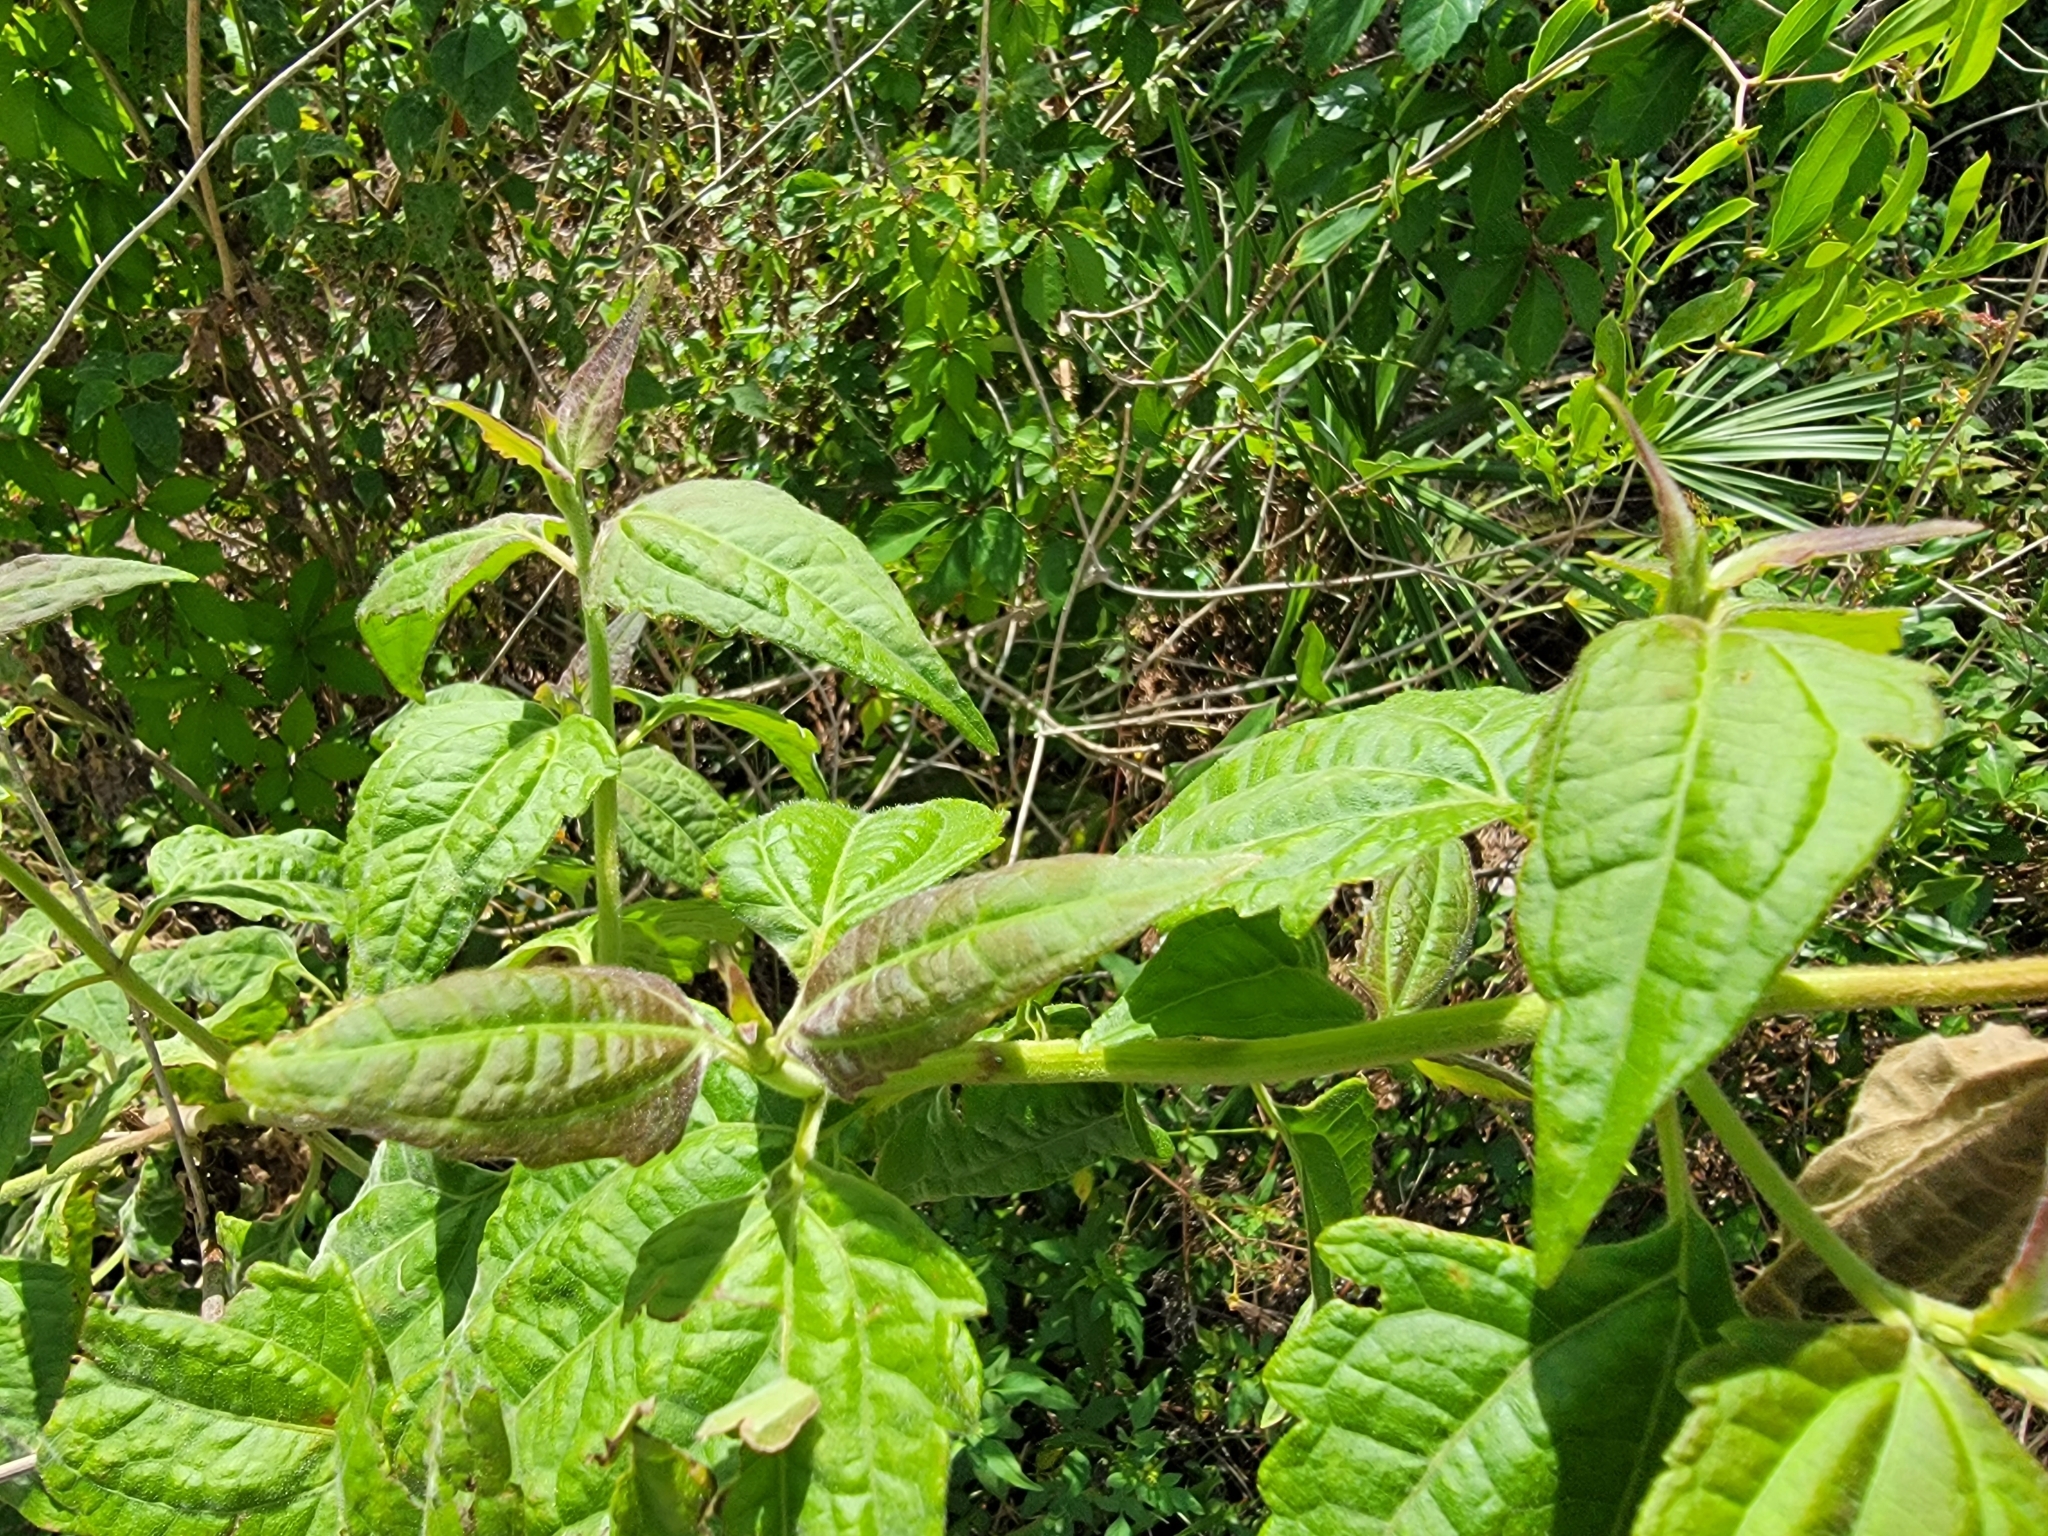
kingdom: Plantae
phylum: Tracheophyta
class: Magnoliopsida
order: Asterales
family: Asteraceae
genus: Chromolaena
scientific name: Chromolaena odorata
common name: Siamweed
